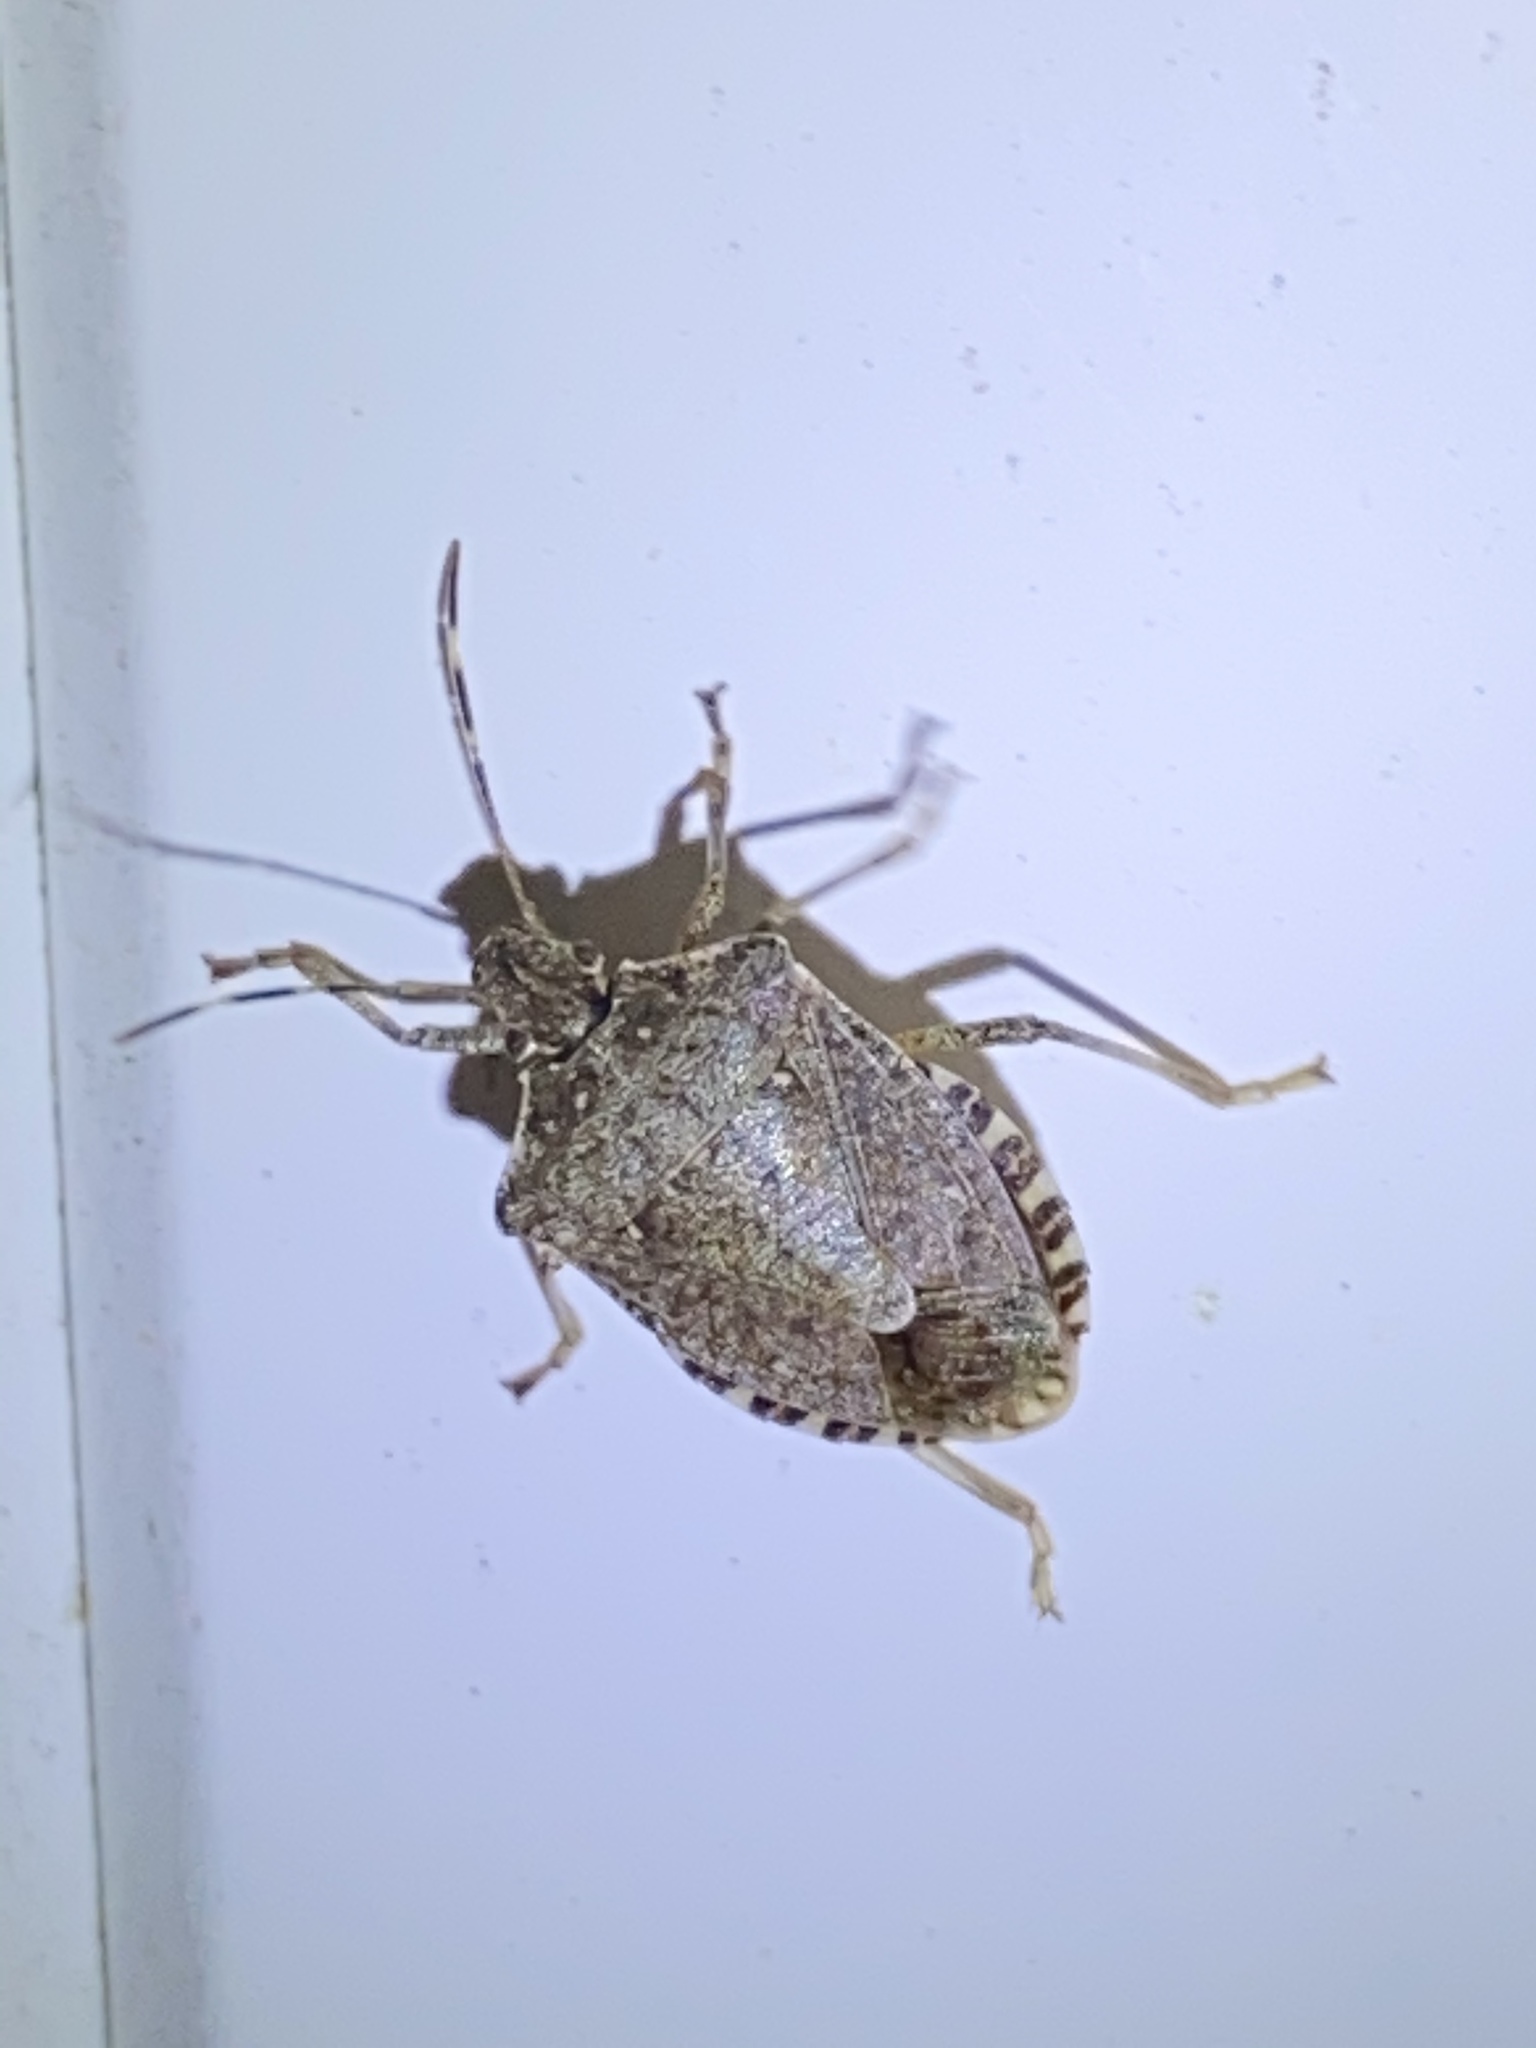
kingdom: Animalia
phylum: Arthropoda
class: Insecta
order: Hemiptera
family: Pentatomidae
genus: Halyomorpha
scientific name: Halyomorpha halys
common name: Brown marmorated stink bug
